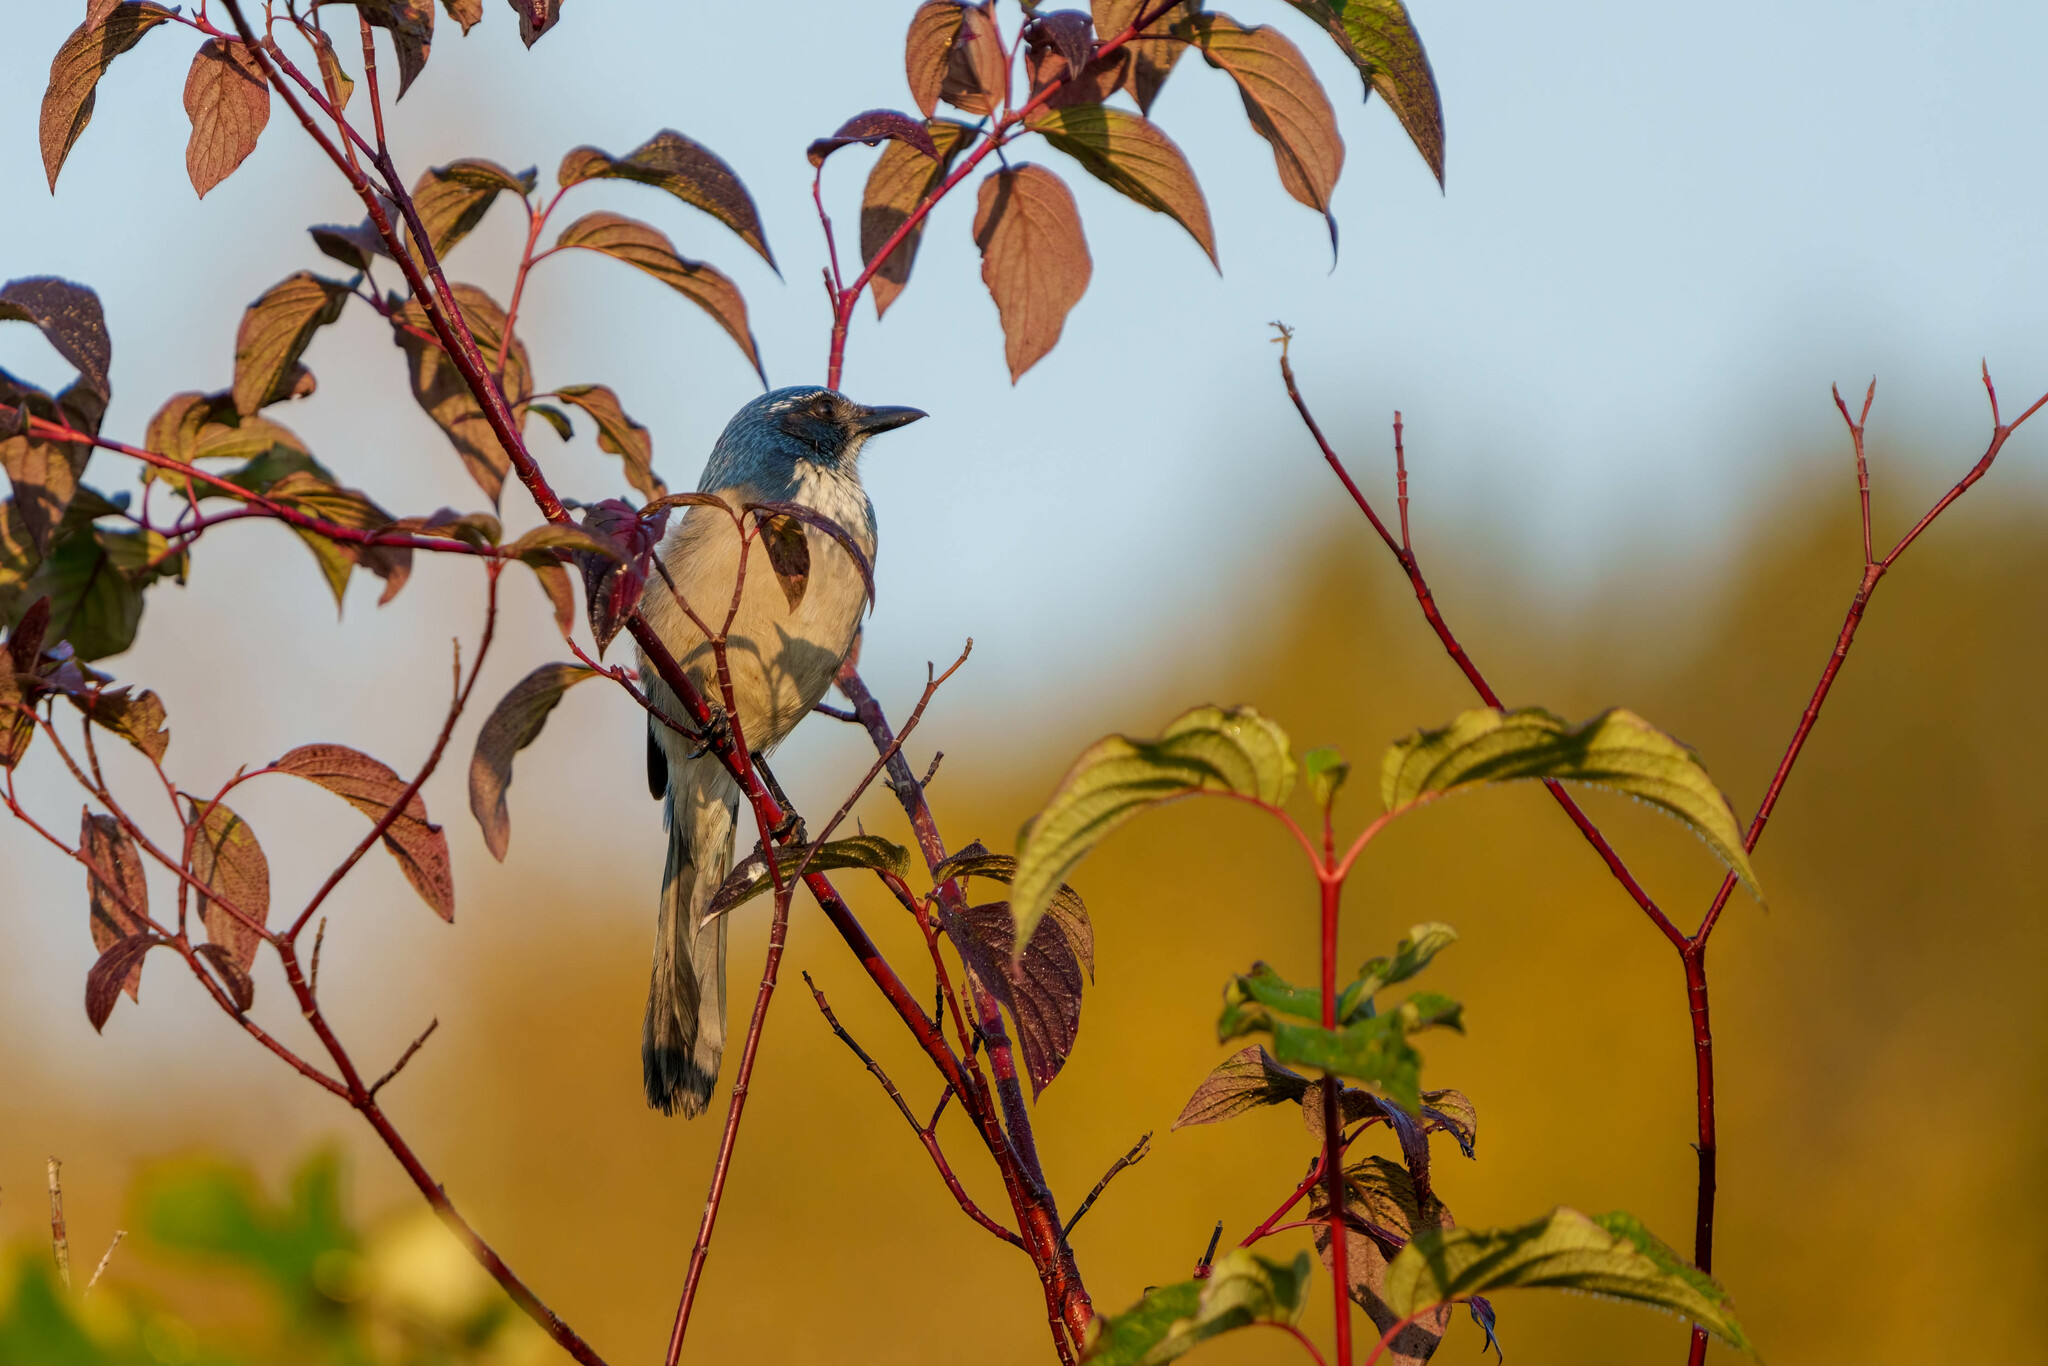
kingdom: Animalia
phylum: Chordata
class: Aves
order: Passeriformes
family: Corvidae
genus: Aphelocoma
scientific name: Aphelocoma californica
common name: California scrub-jay
